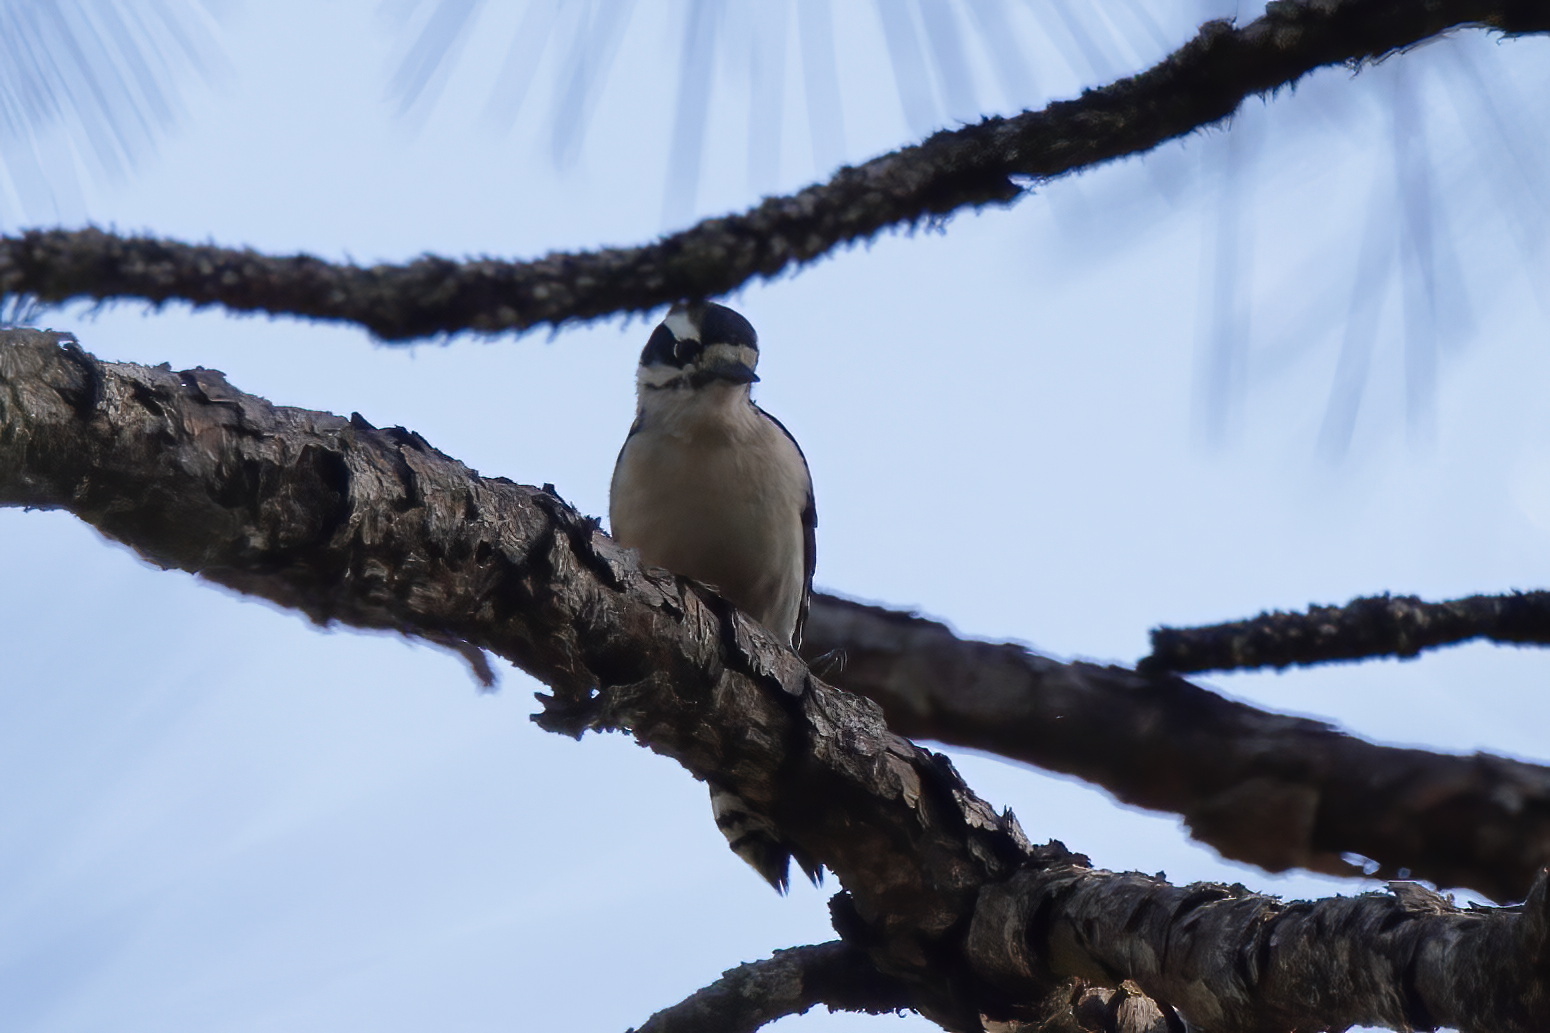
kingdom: Animalia
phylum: Chordata
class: Aves
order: Piciformes
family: Picidae
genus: Dryobates
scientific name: Dryobates pubescens
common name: Downy woodpecker
